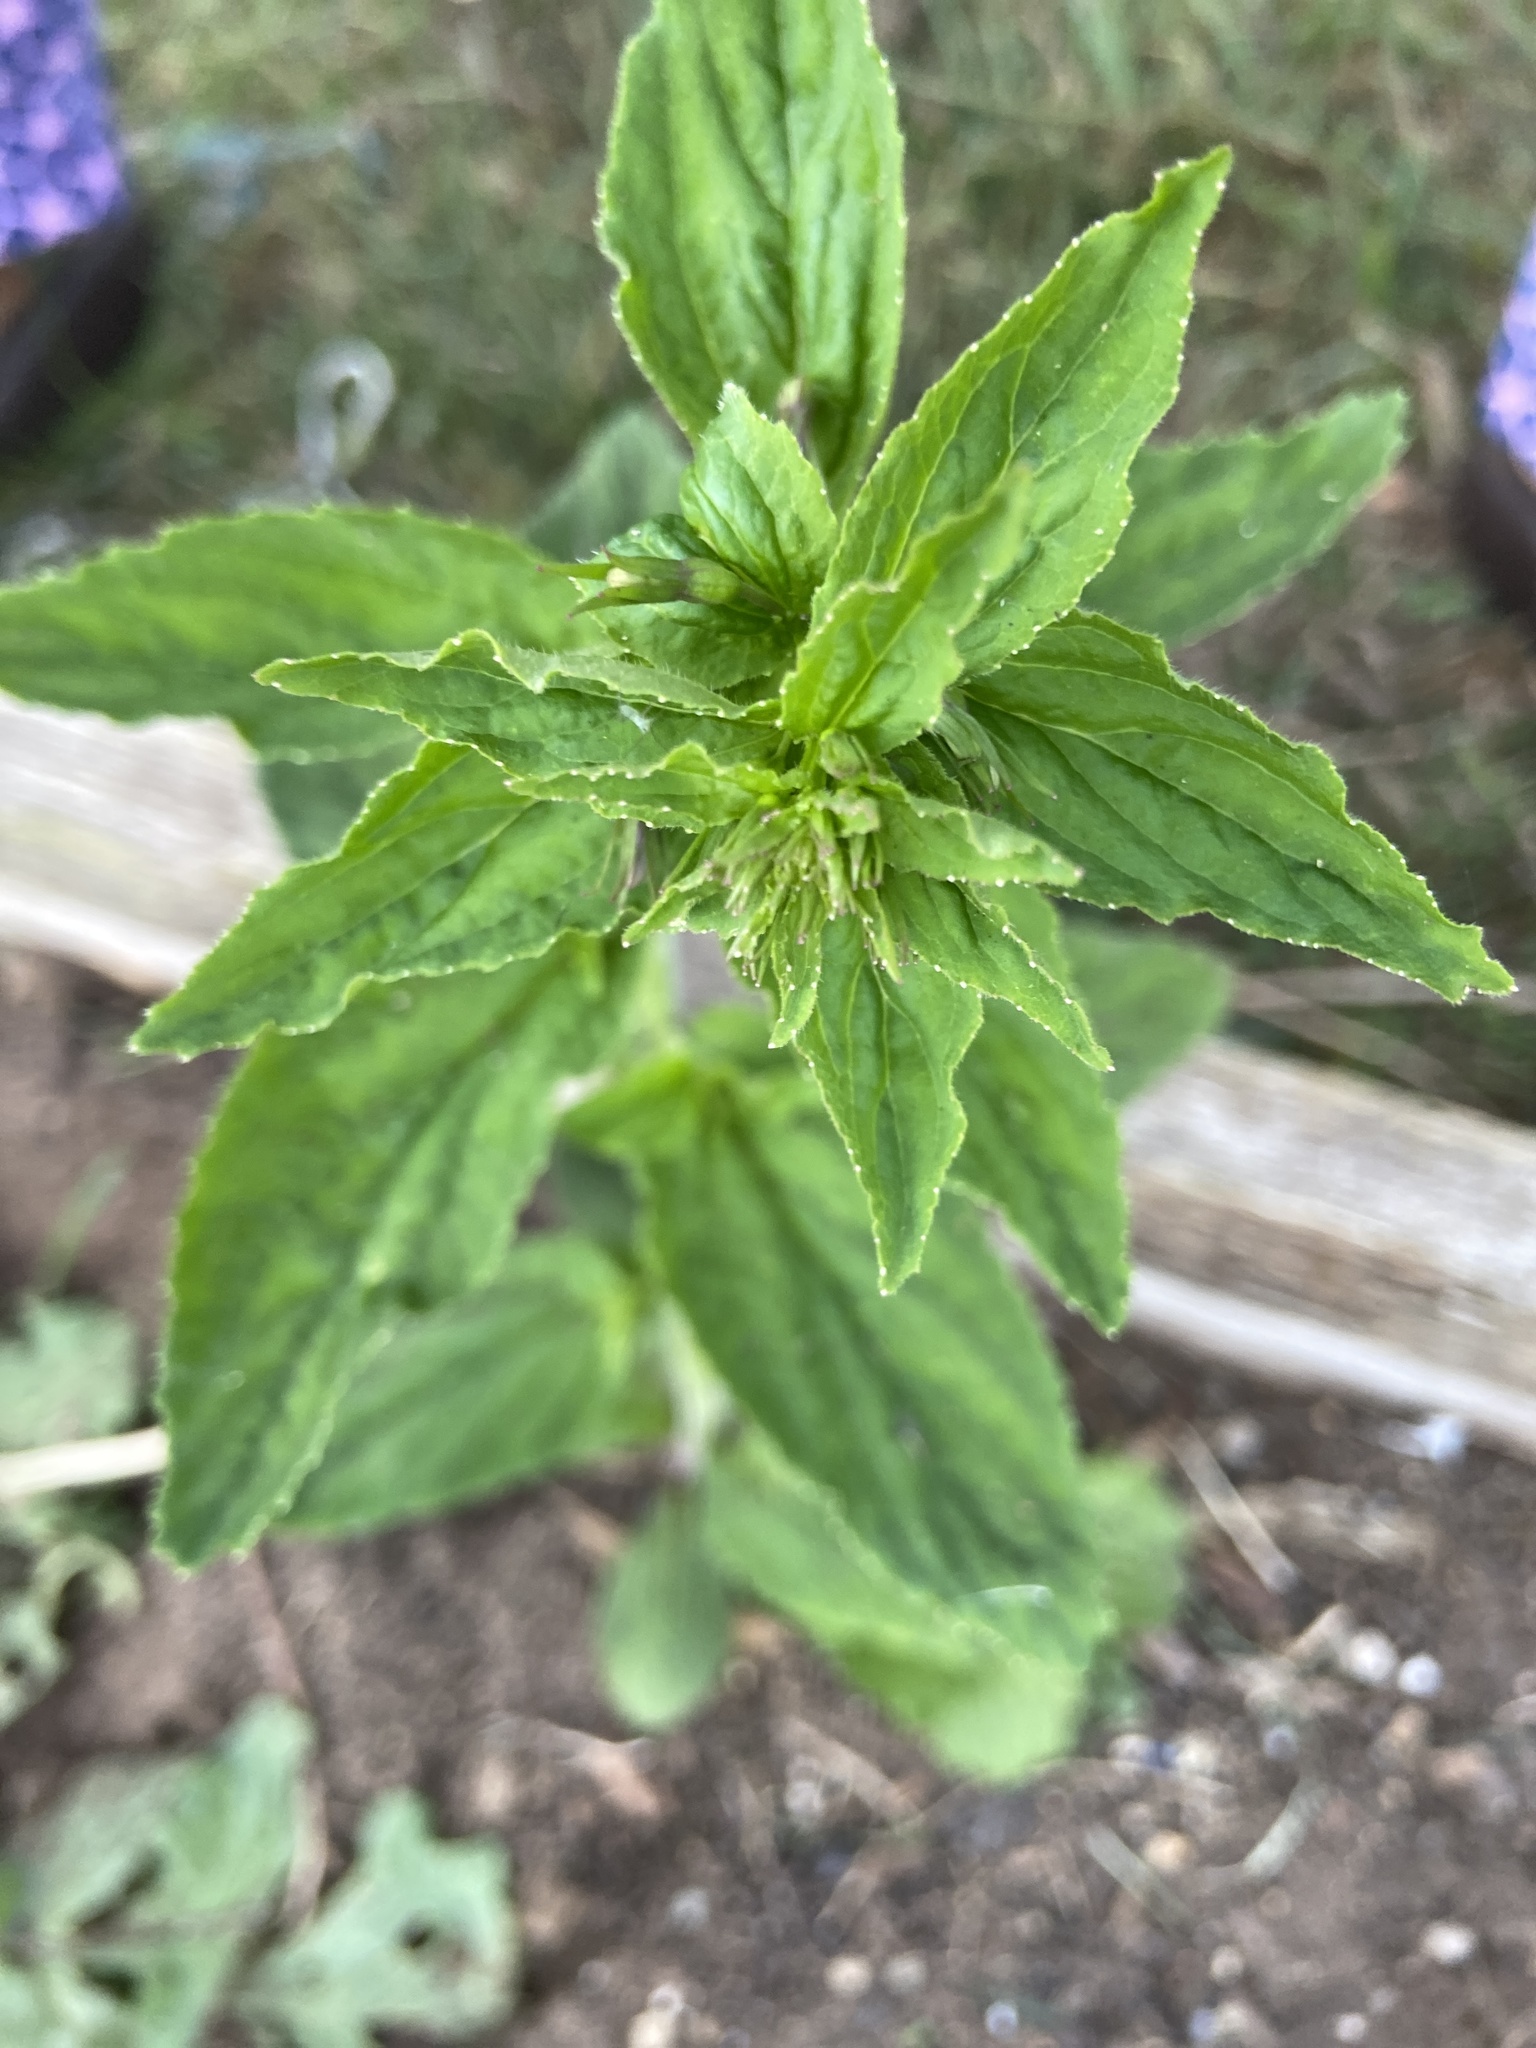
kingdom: Plantae
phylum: Tracheophyta
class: Magnoliopsida
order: Asterales
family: Campanulaceae
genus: Lobelia
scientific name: Lobelia inflata
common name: Indian tobacco
